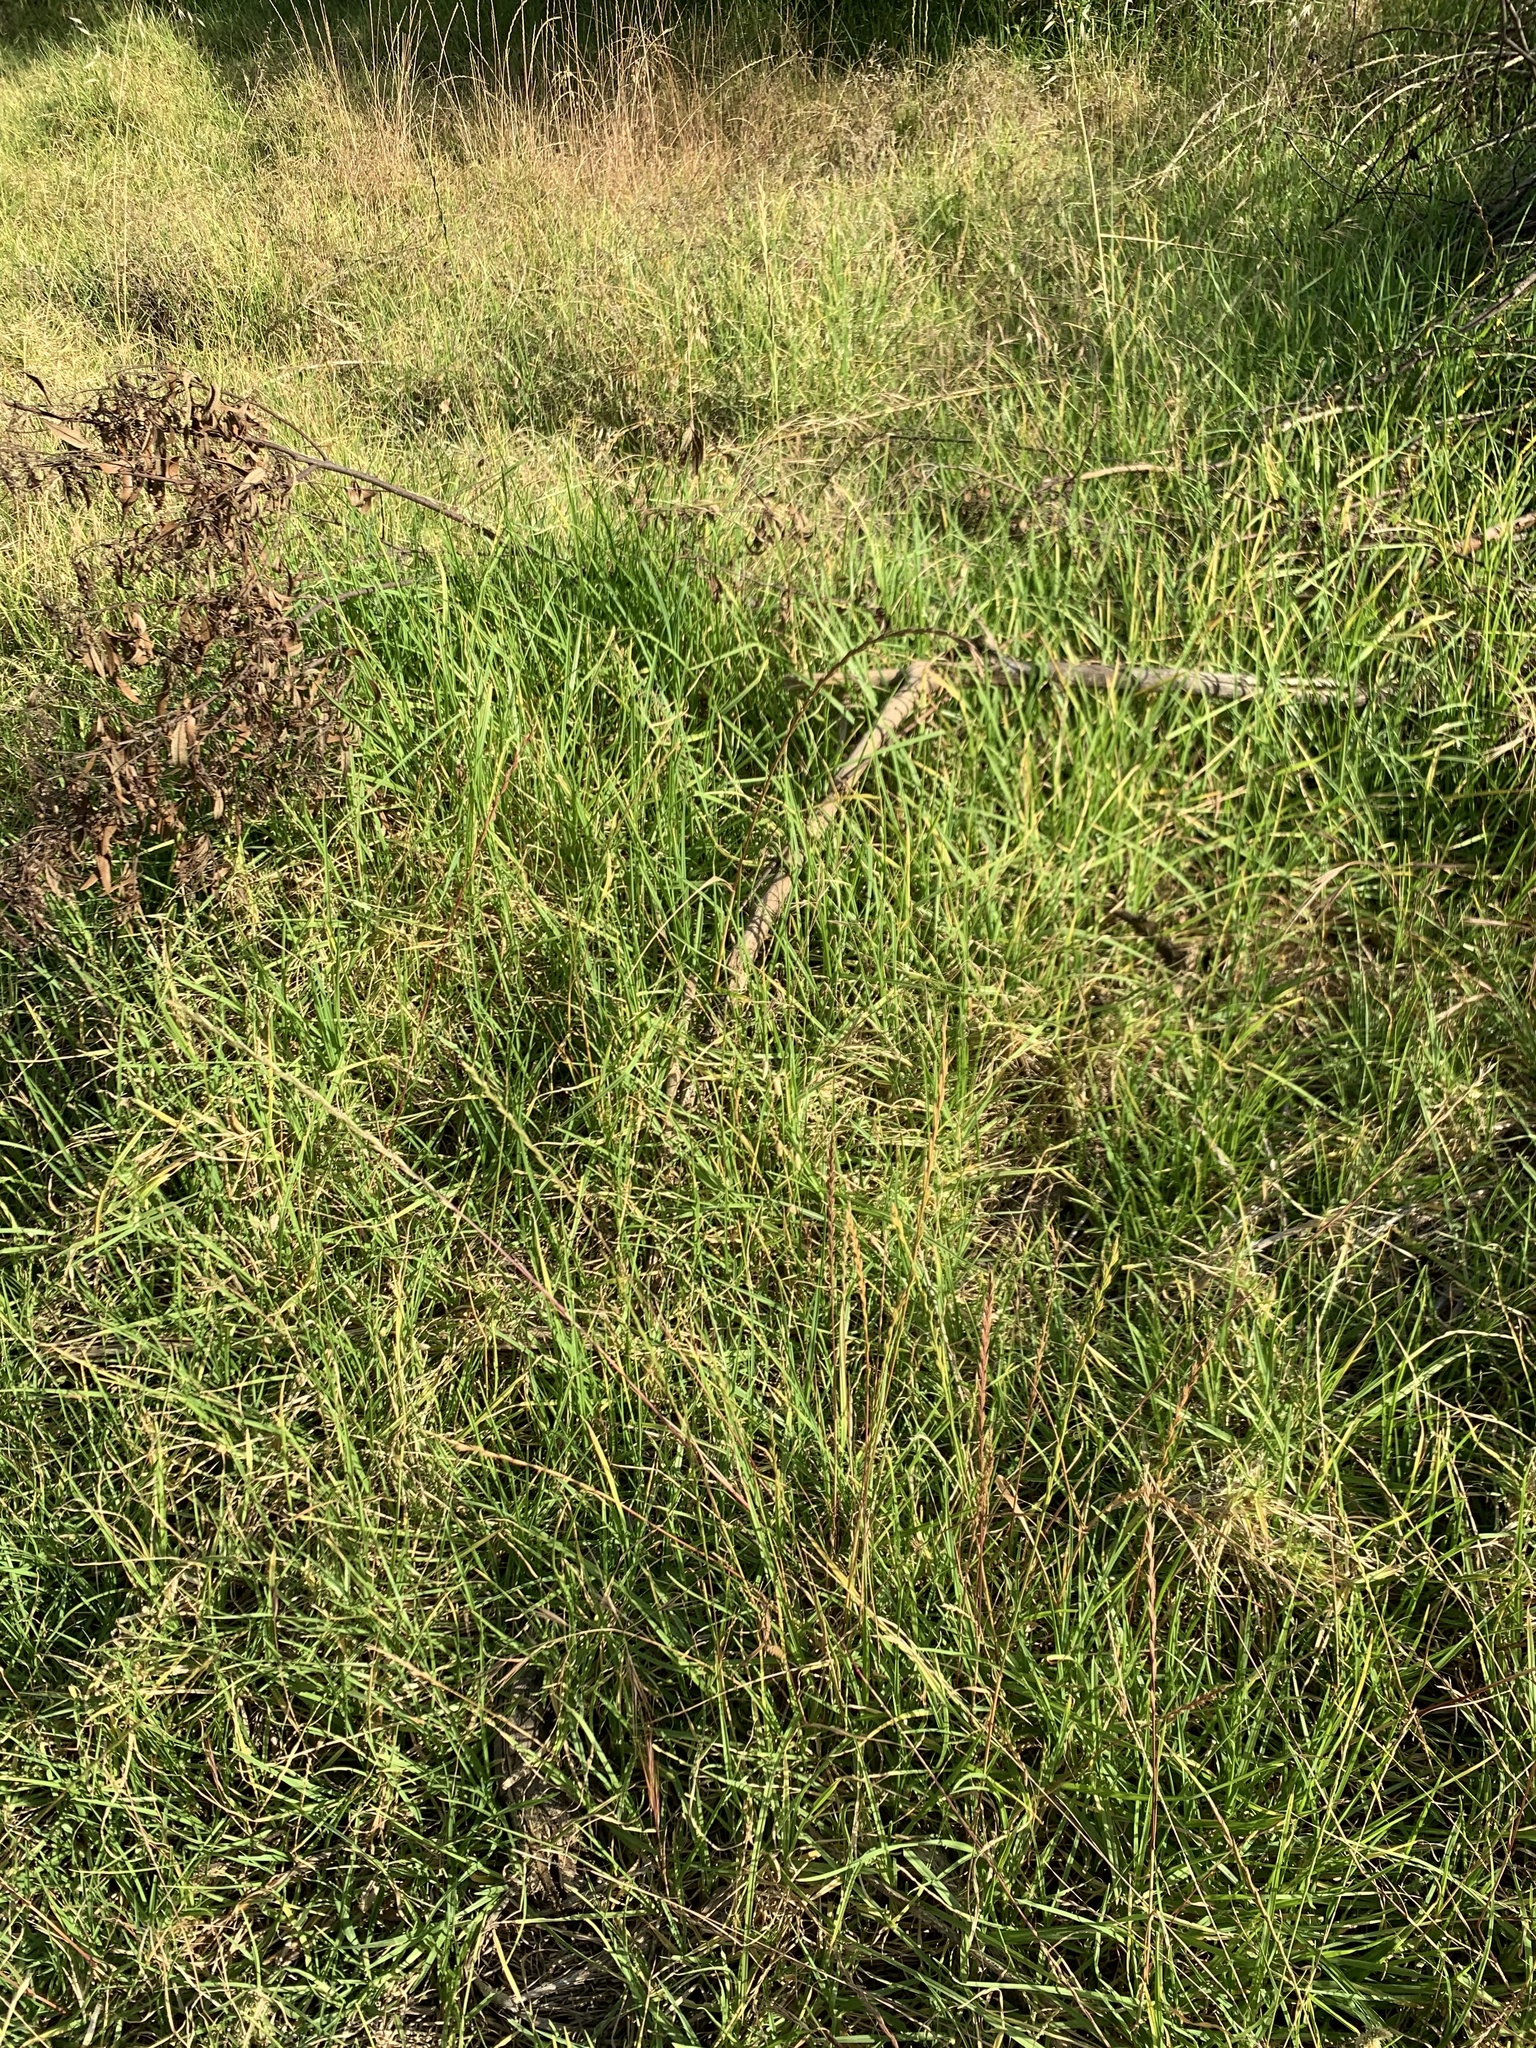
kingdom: Plantae
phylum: Tracheophyta
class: Liliopsida
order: Poales
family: Poaceae
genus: Cenchrus
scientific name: Cenchrus clandestinus
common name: Kikuyugrass
